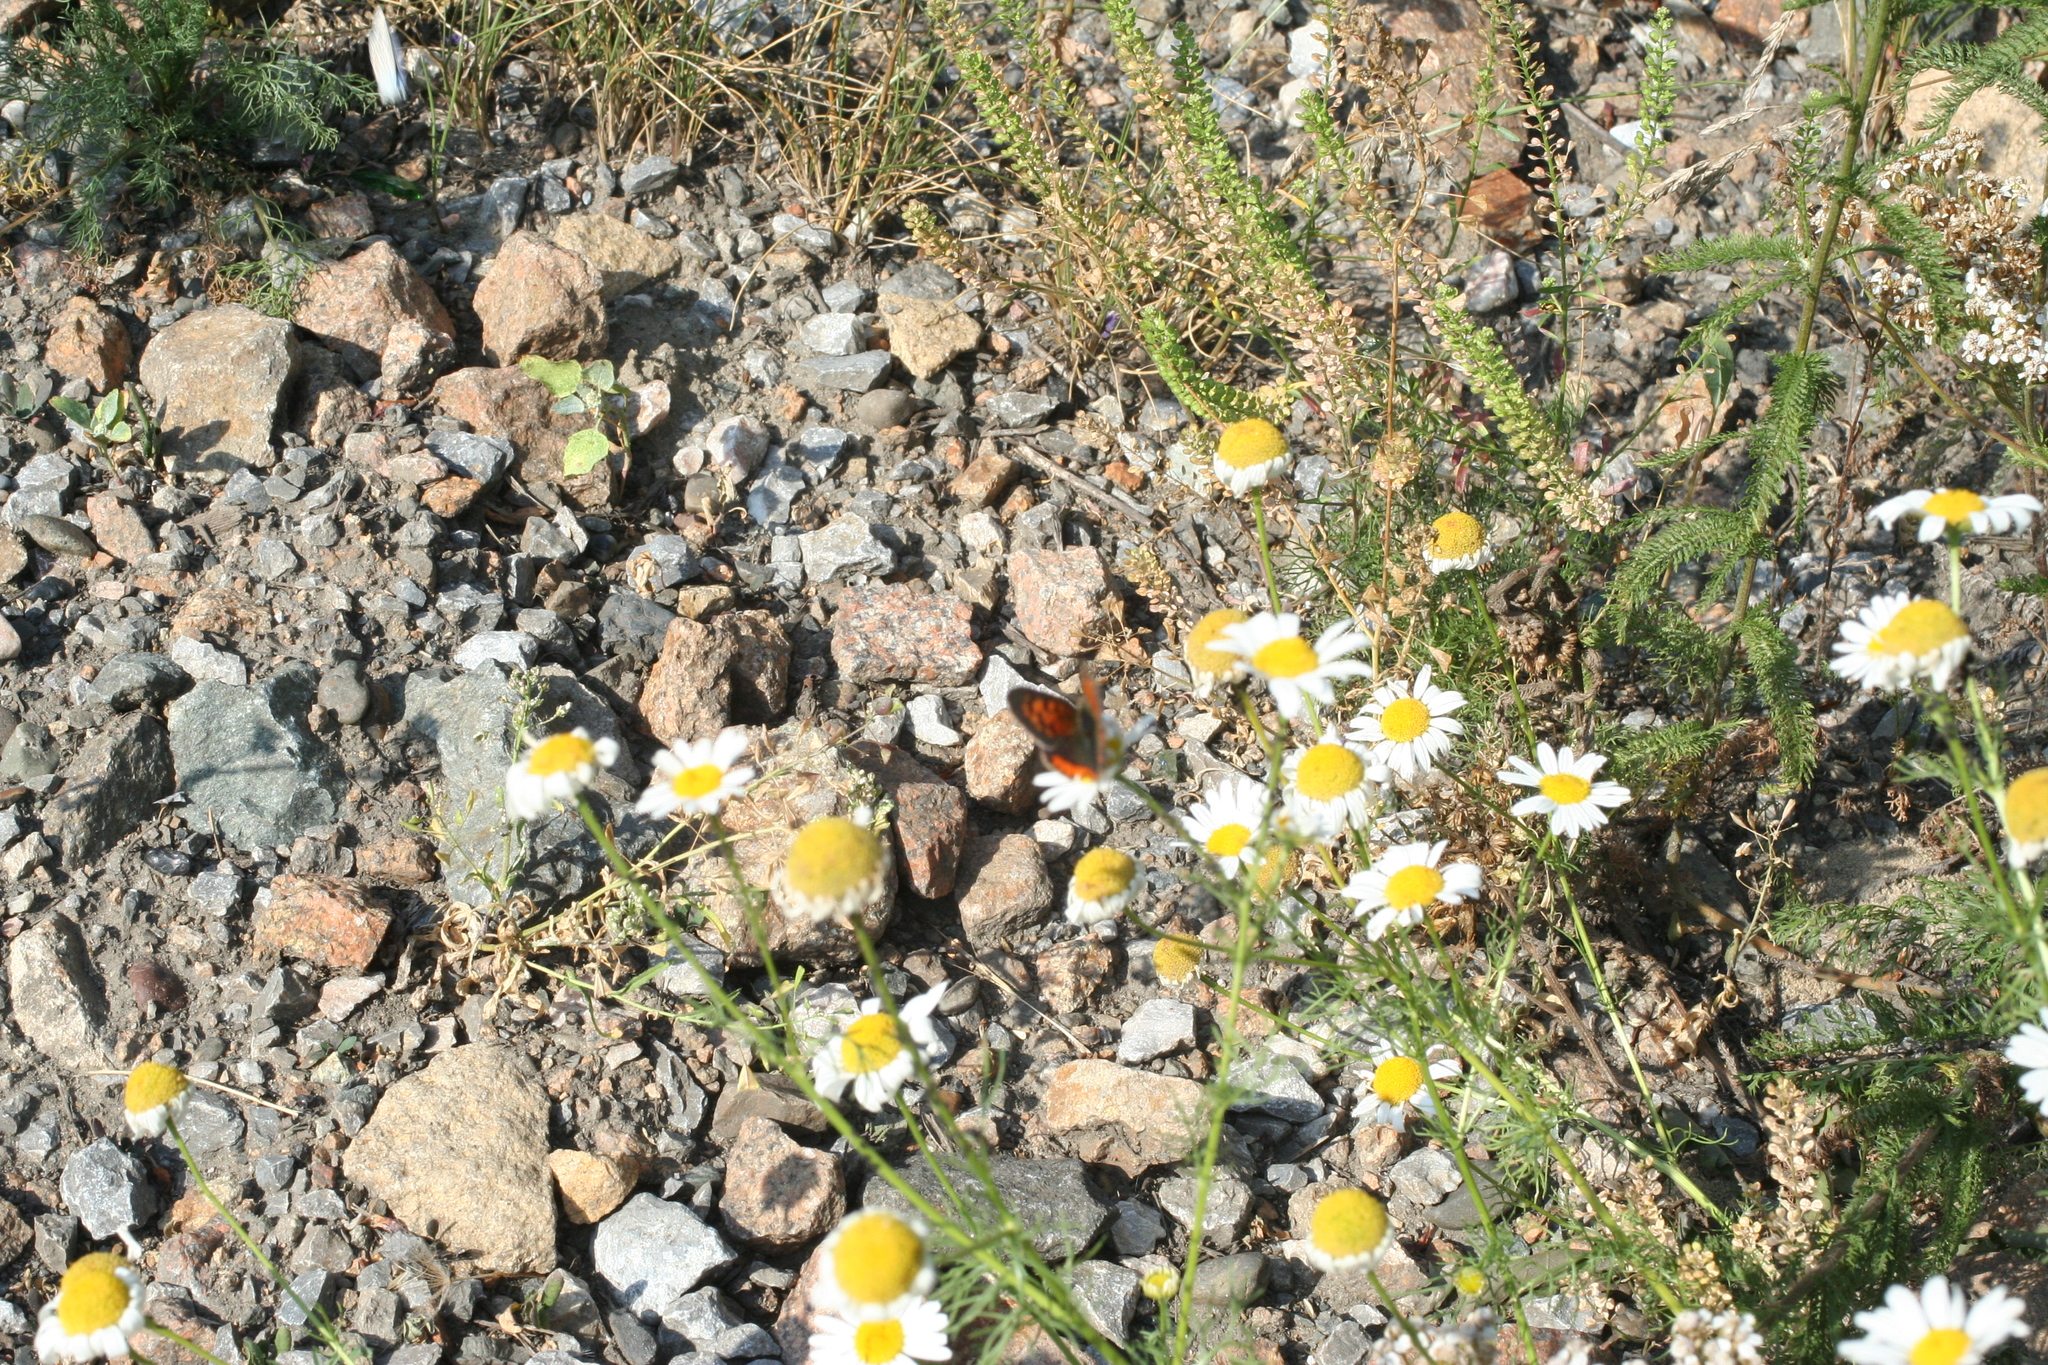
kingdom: Animalia
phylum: Arthropoda
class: Insecta
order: Lepidoptera
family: Lycaenidae
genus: Lycaena
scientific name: Lycaena phlaeas
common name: Small copper
